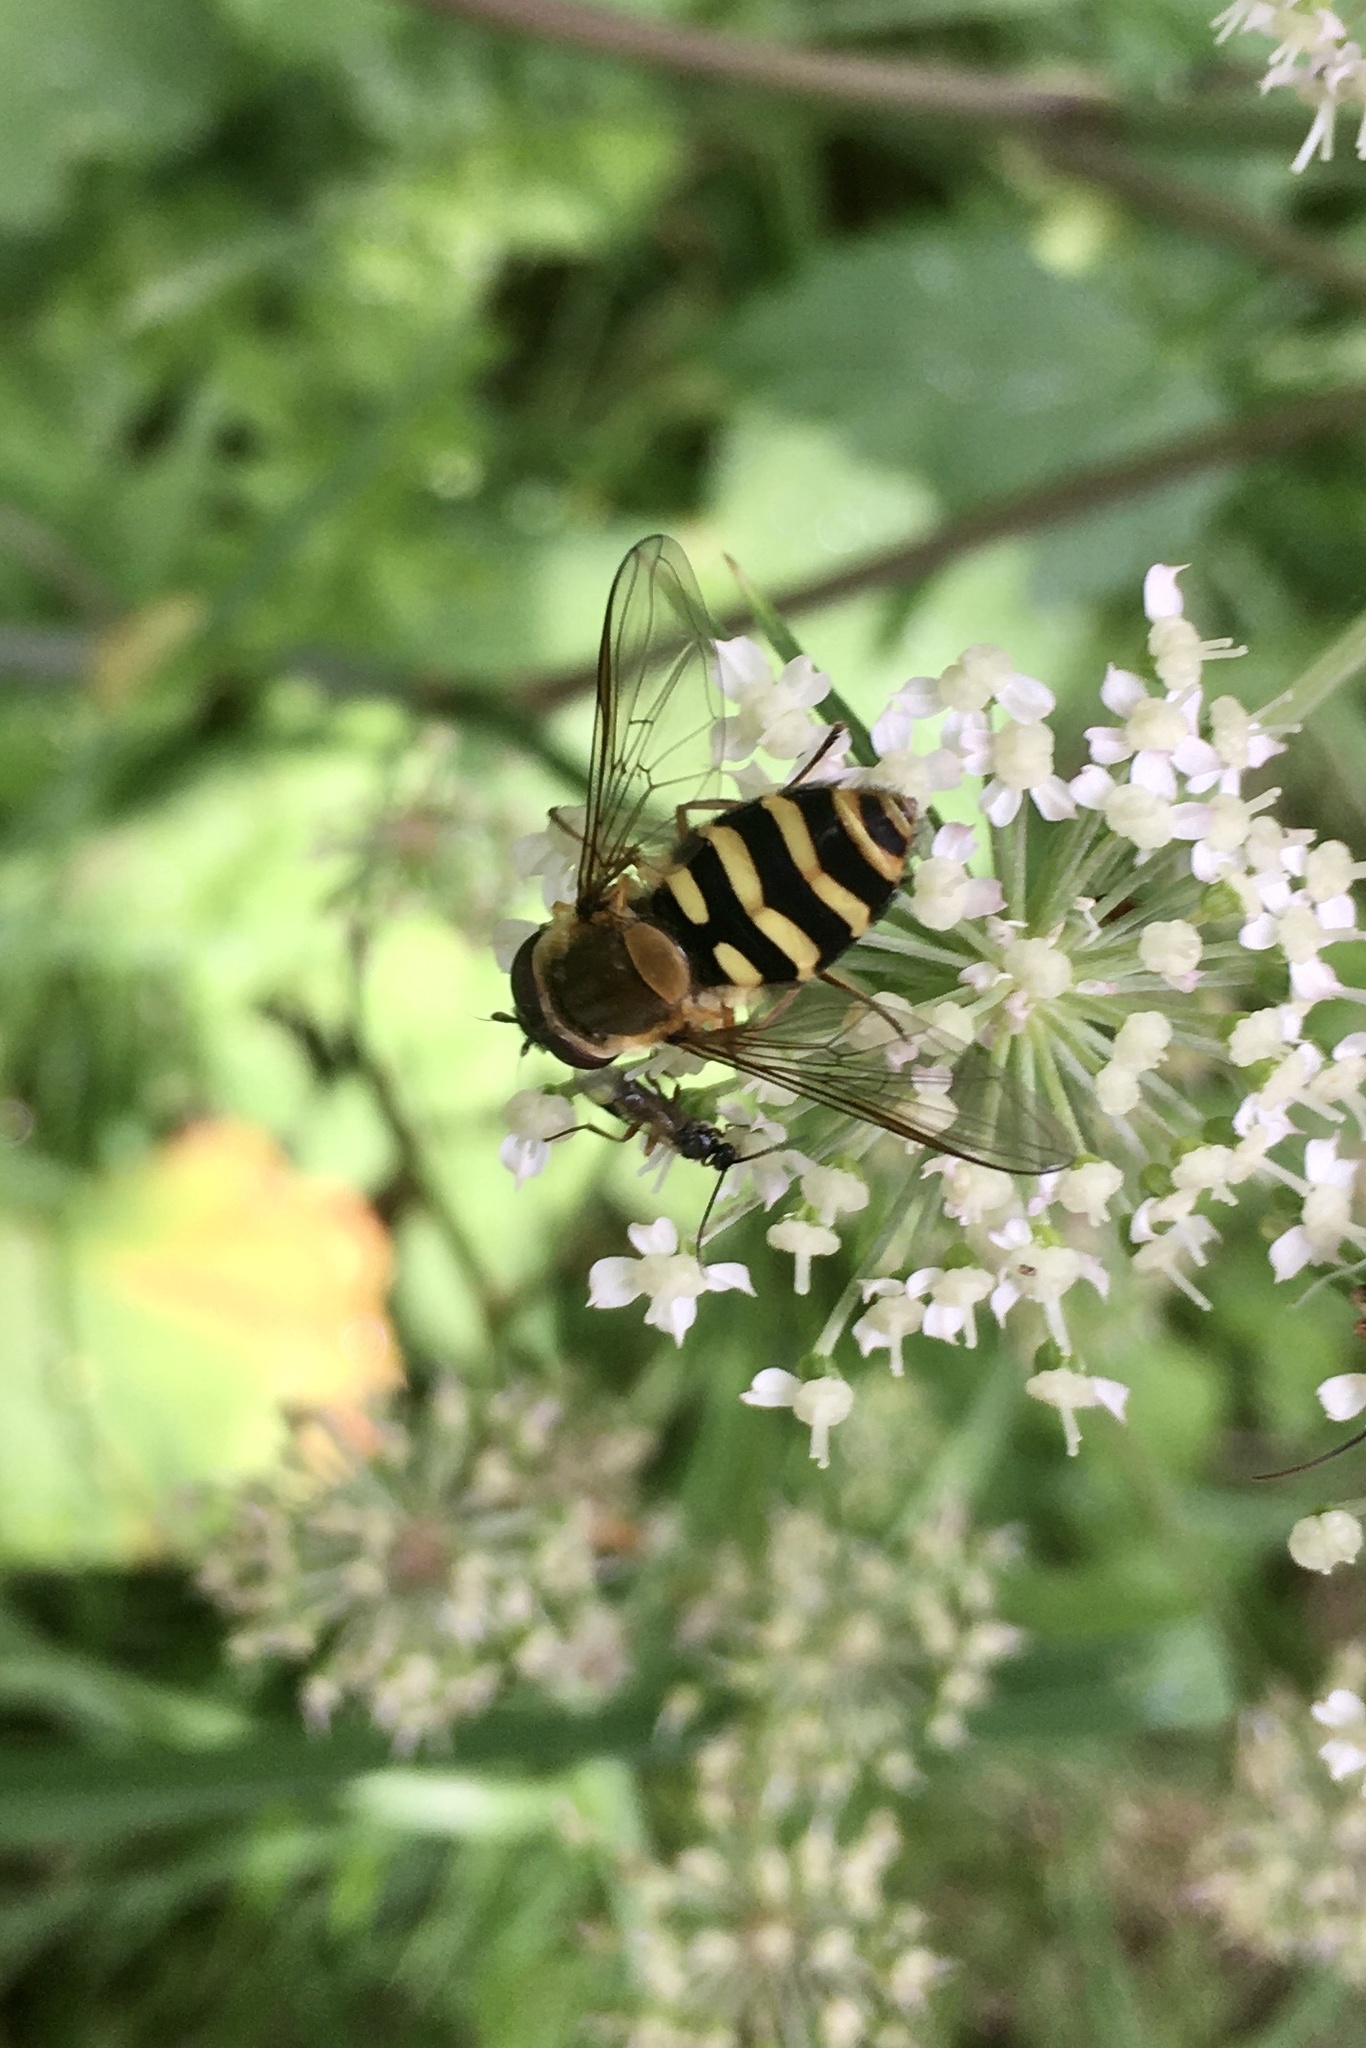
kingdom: Animalia
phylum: Arthropoda
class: Insecta
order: Diptera
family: Syrphidae
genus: Syrphus
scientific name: Syrphus
